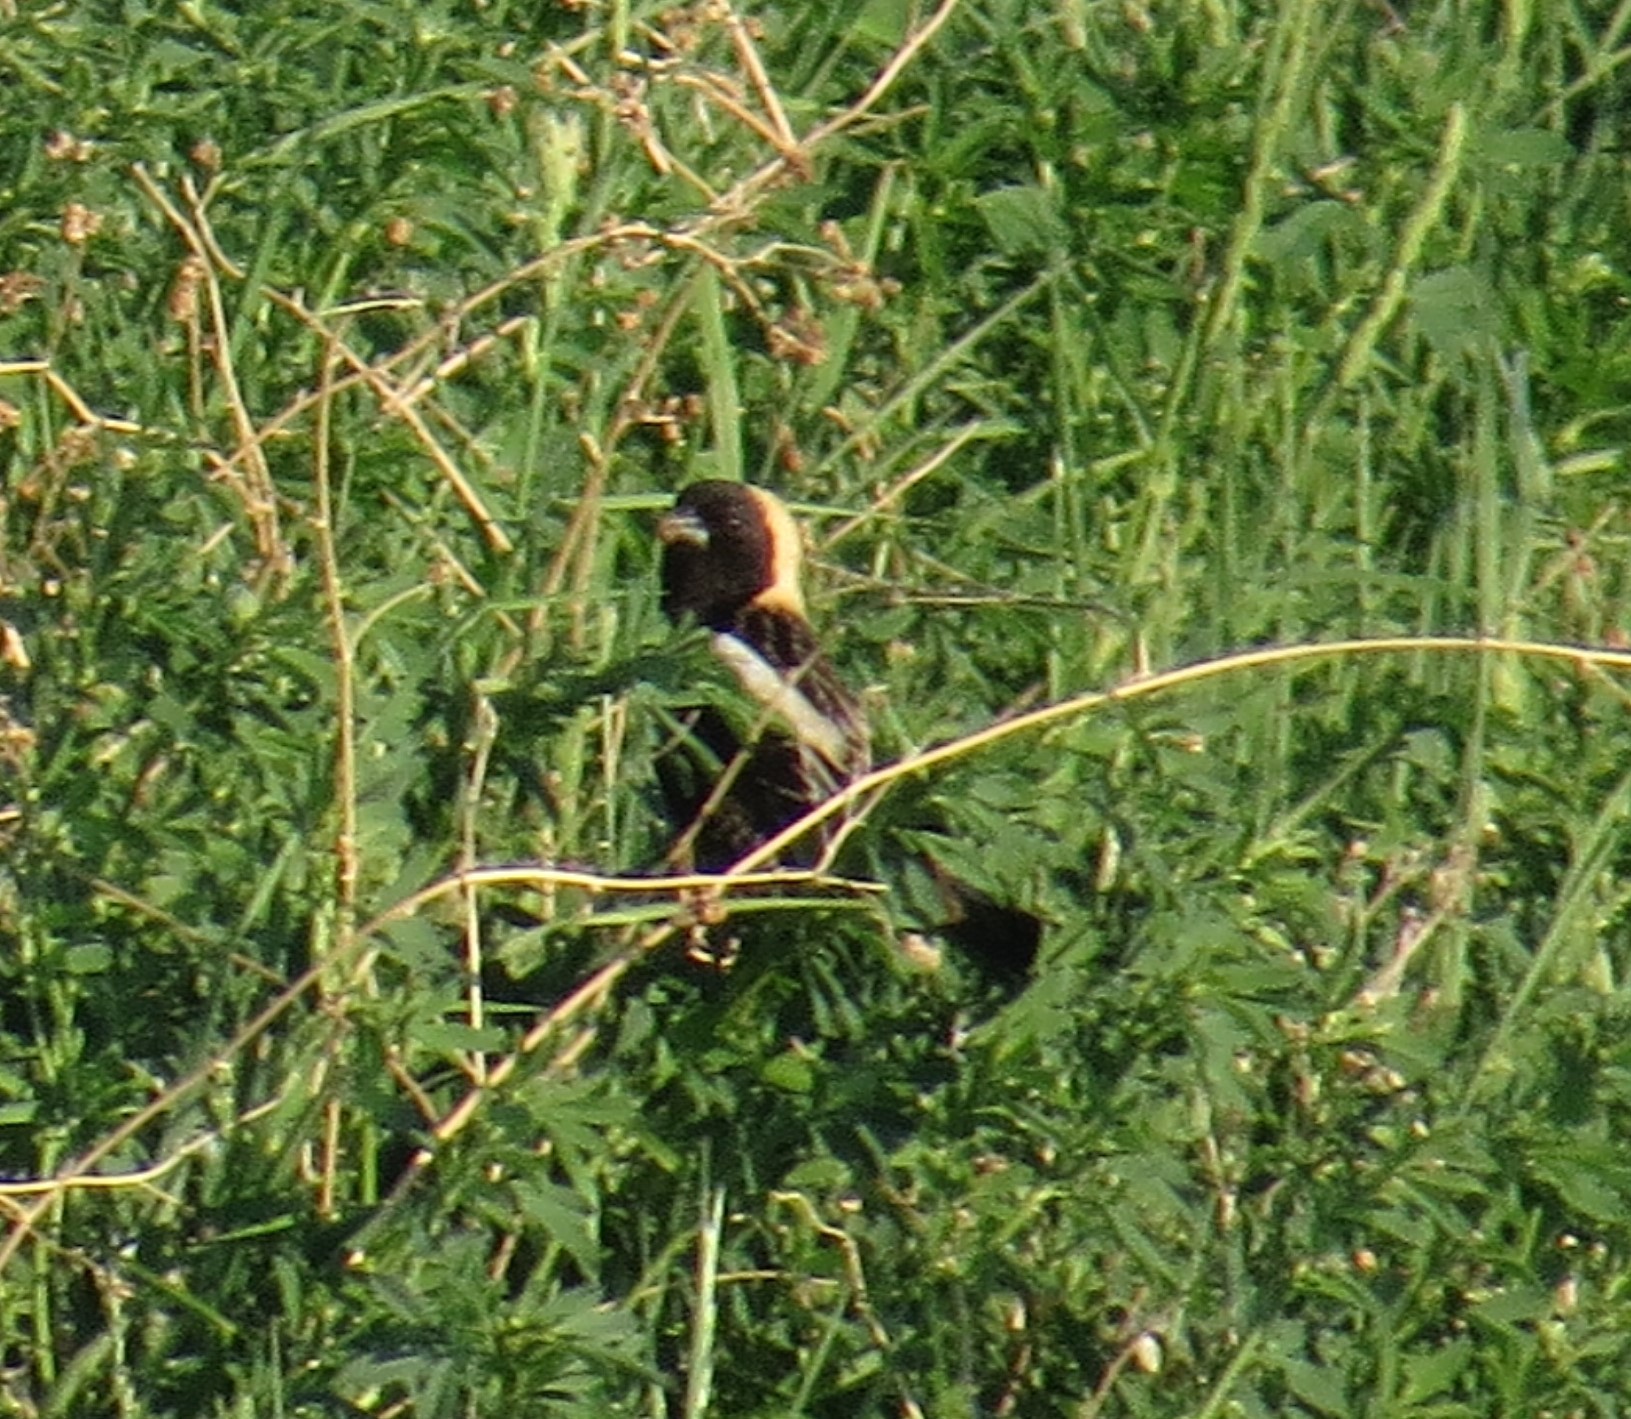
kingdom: Animalia
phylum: Chordata
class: Aves
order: Passeriformes
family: Icteridae
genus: Dolichonyx
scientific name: Dolichonyx oryzivorus
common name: Bobolink
